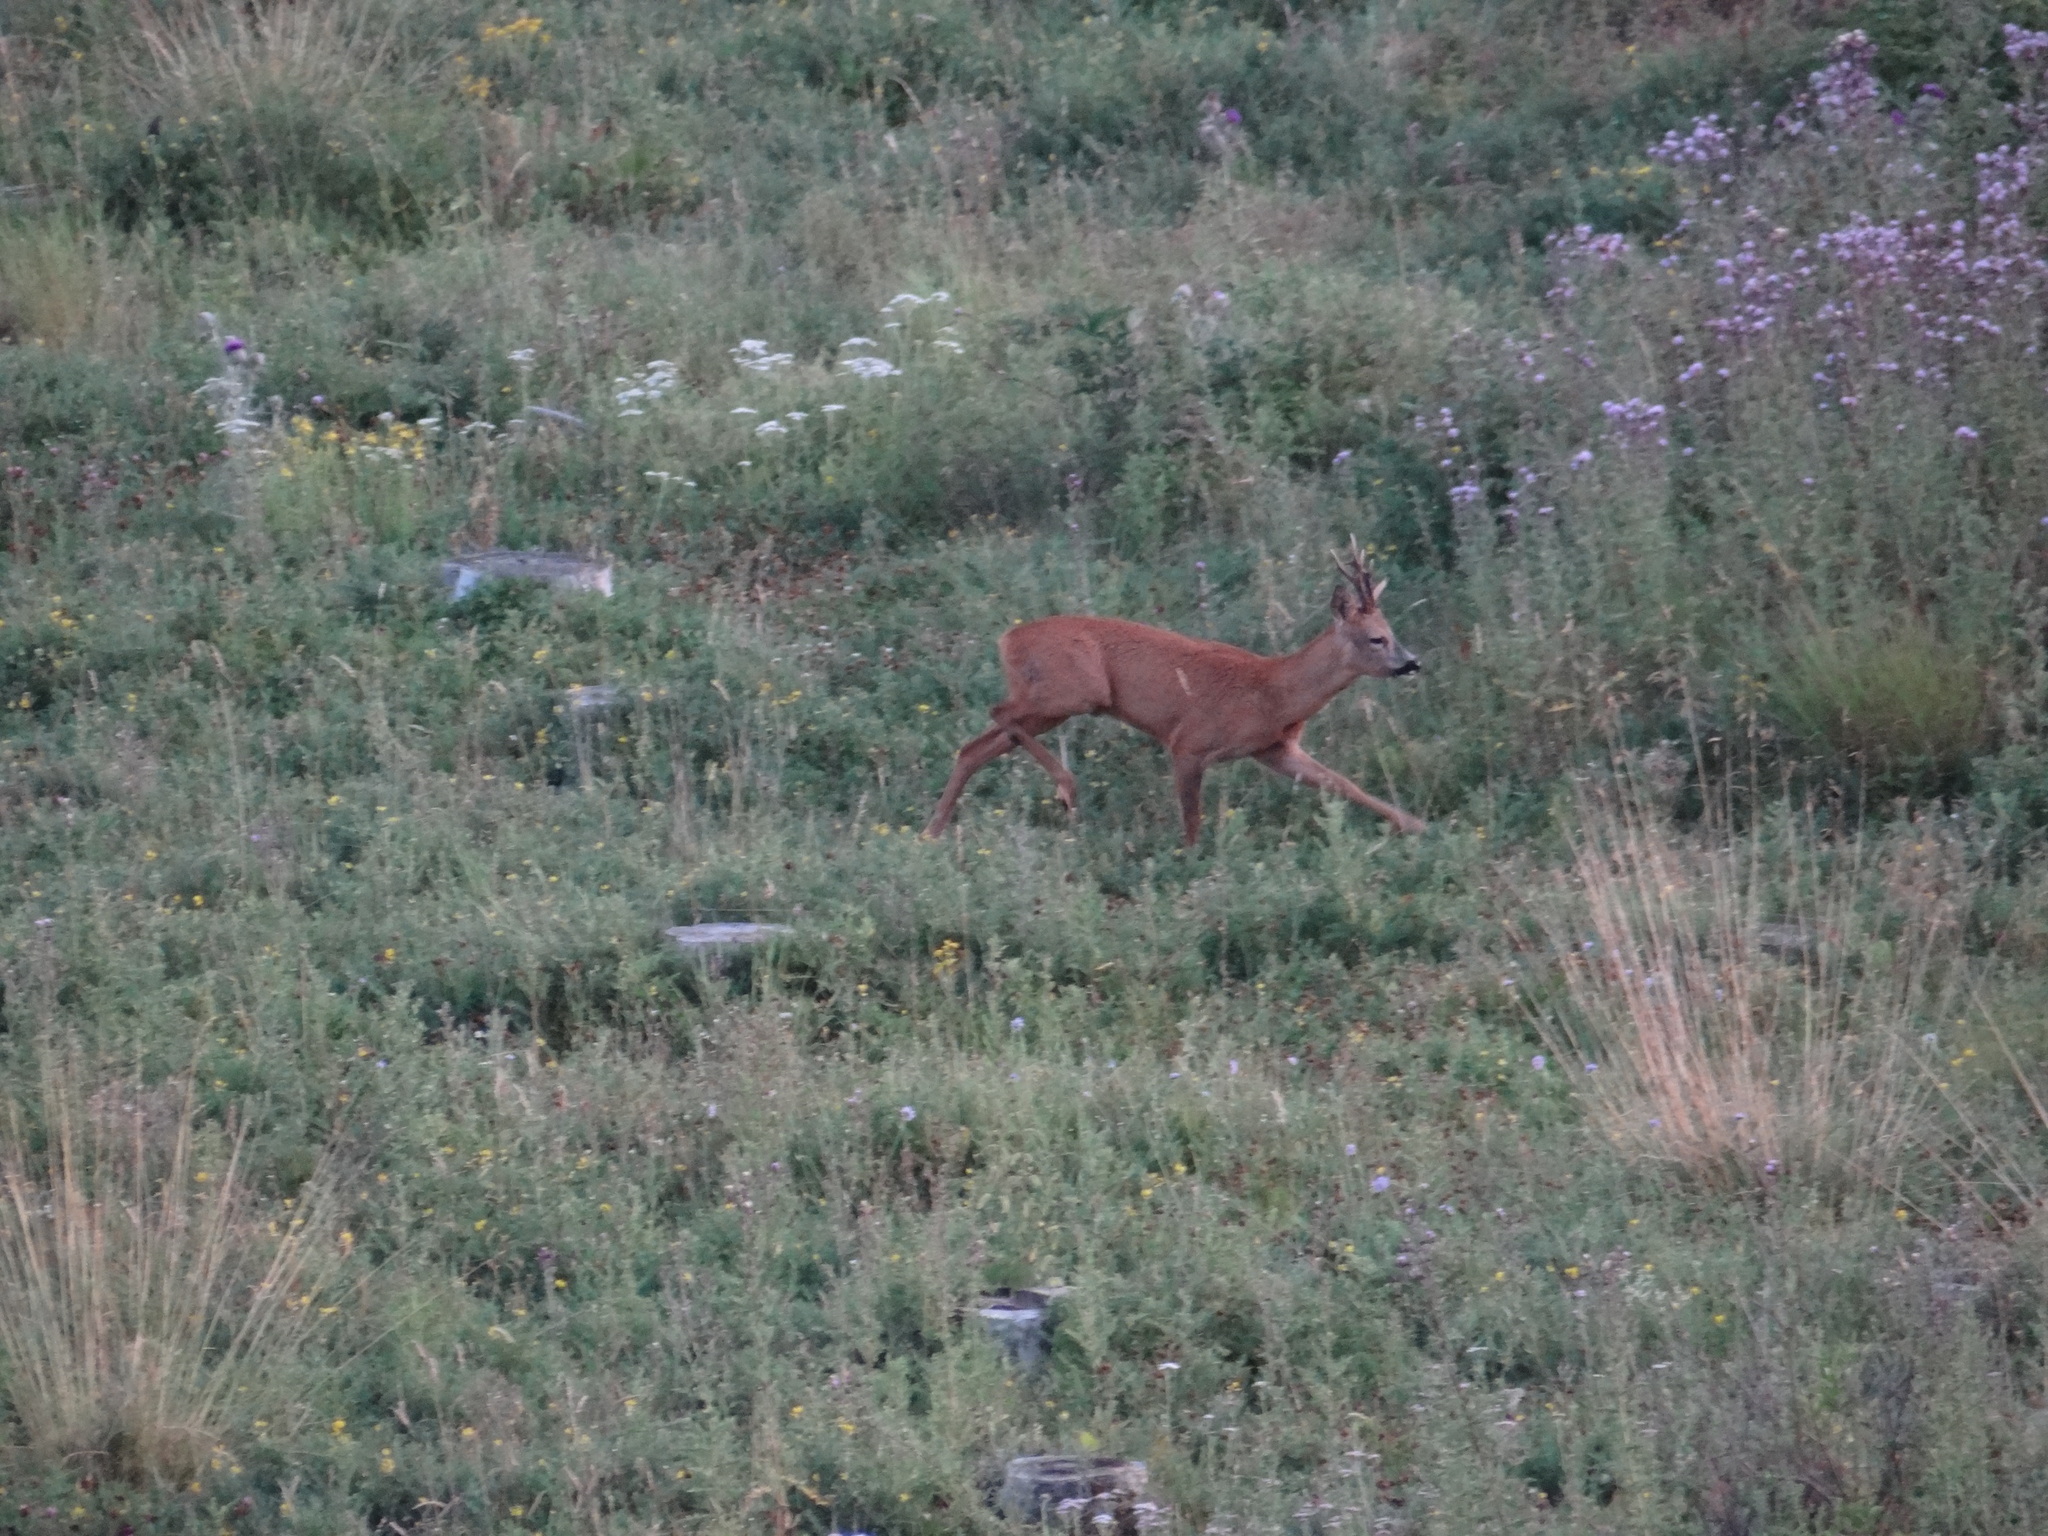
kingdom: Animalia
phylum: Chordata
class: Mammalia
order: Artiodactyla
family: Cervidae
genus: Capreolus
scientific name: Capreolus capreolus
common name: Western roe deer
